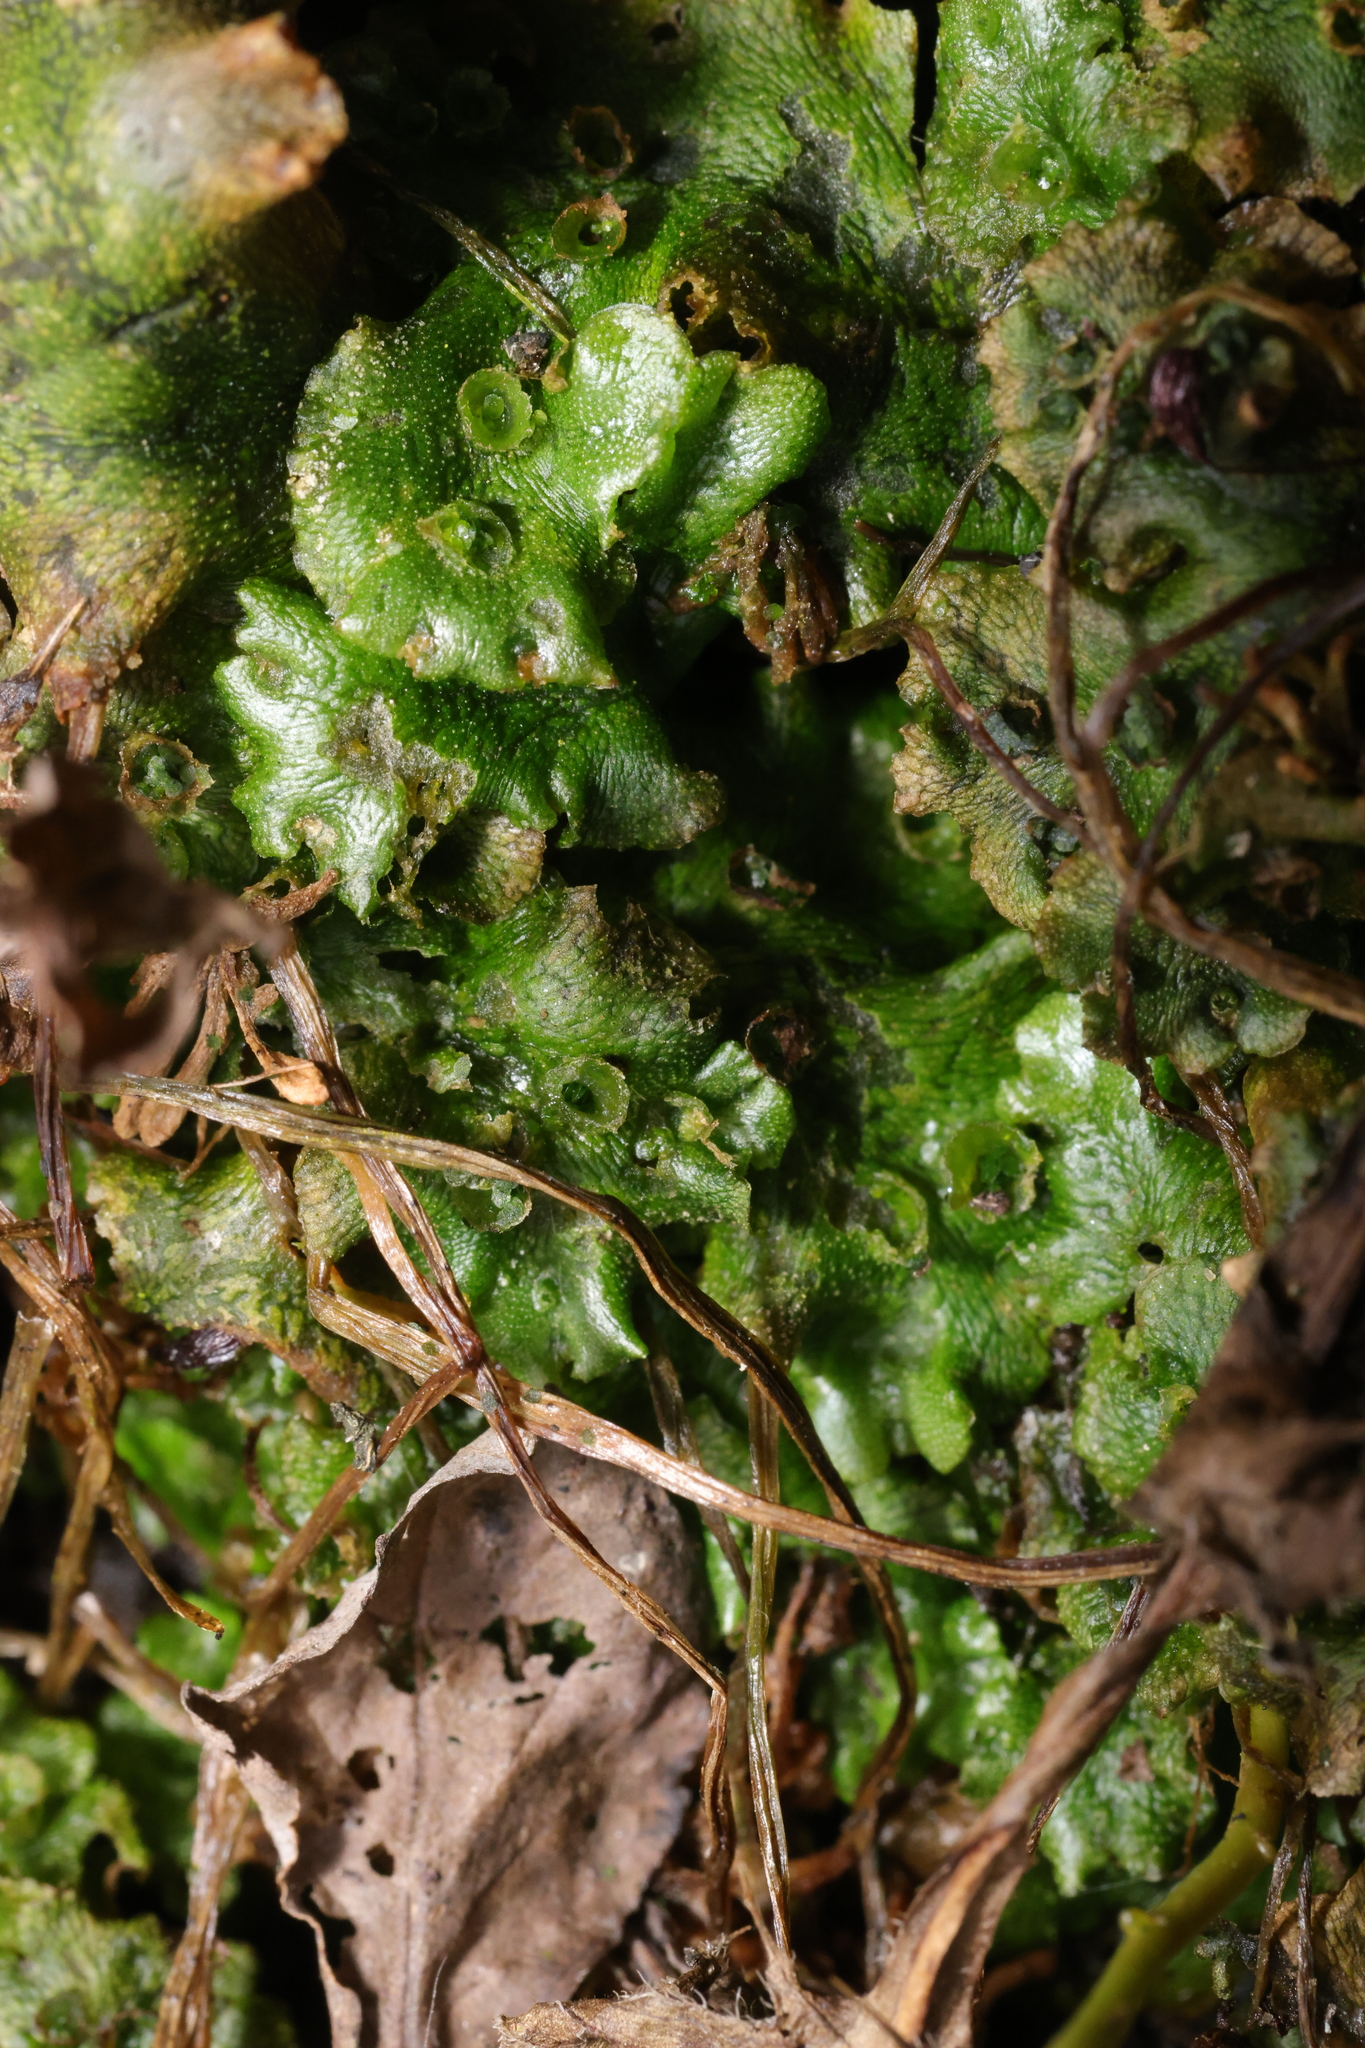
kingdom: Plantae
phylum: Marchantiophyta
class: Marchantiopsida
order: Marchantiales
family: Marchantiaceae
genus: Marchantia
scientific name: Marchantia polymorpha
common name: Common liverwort
